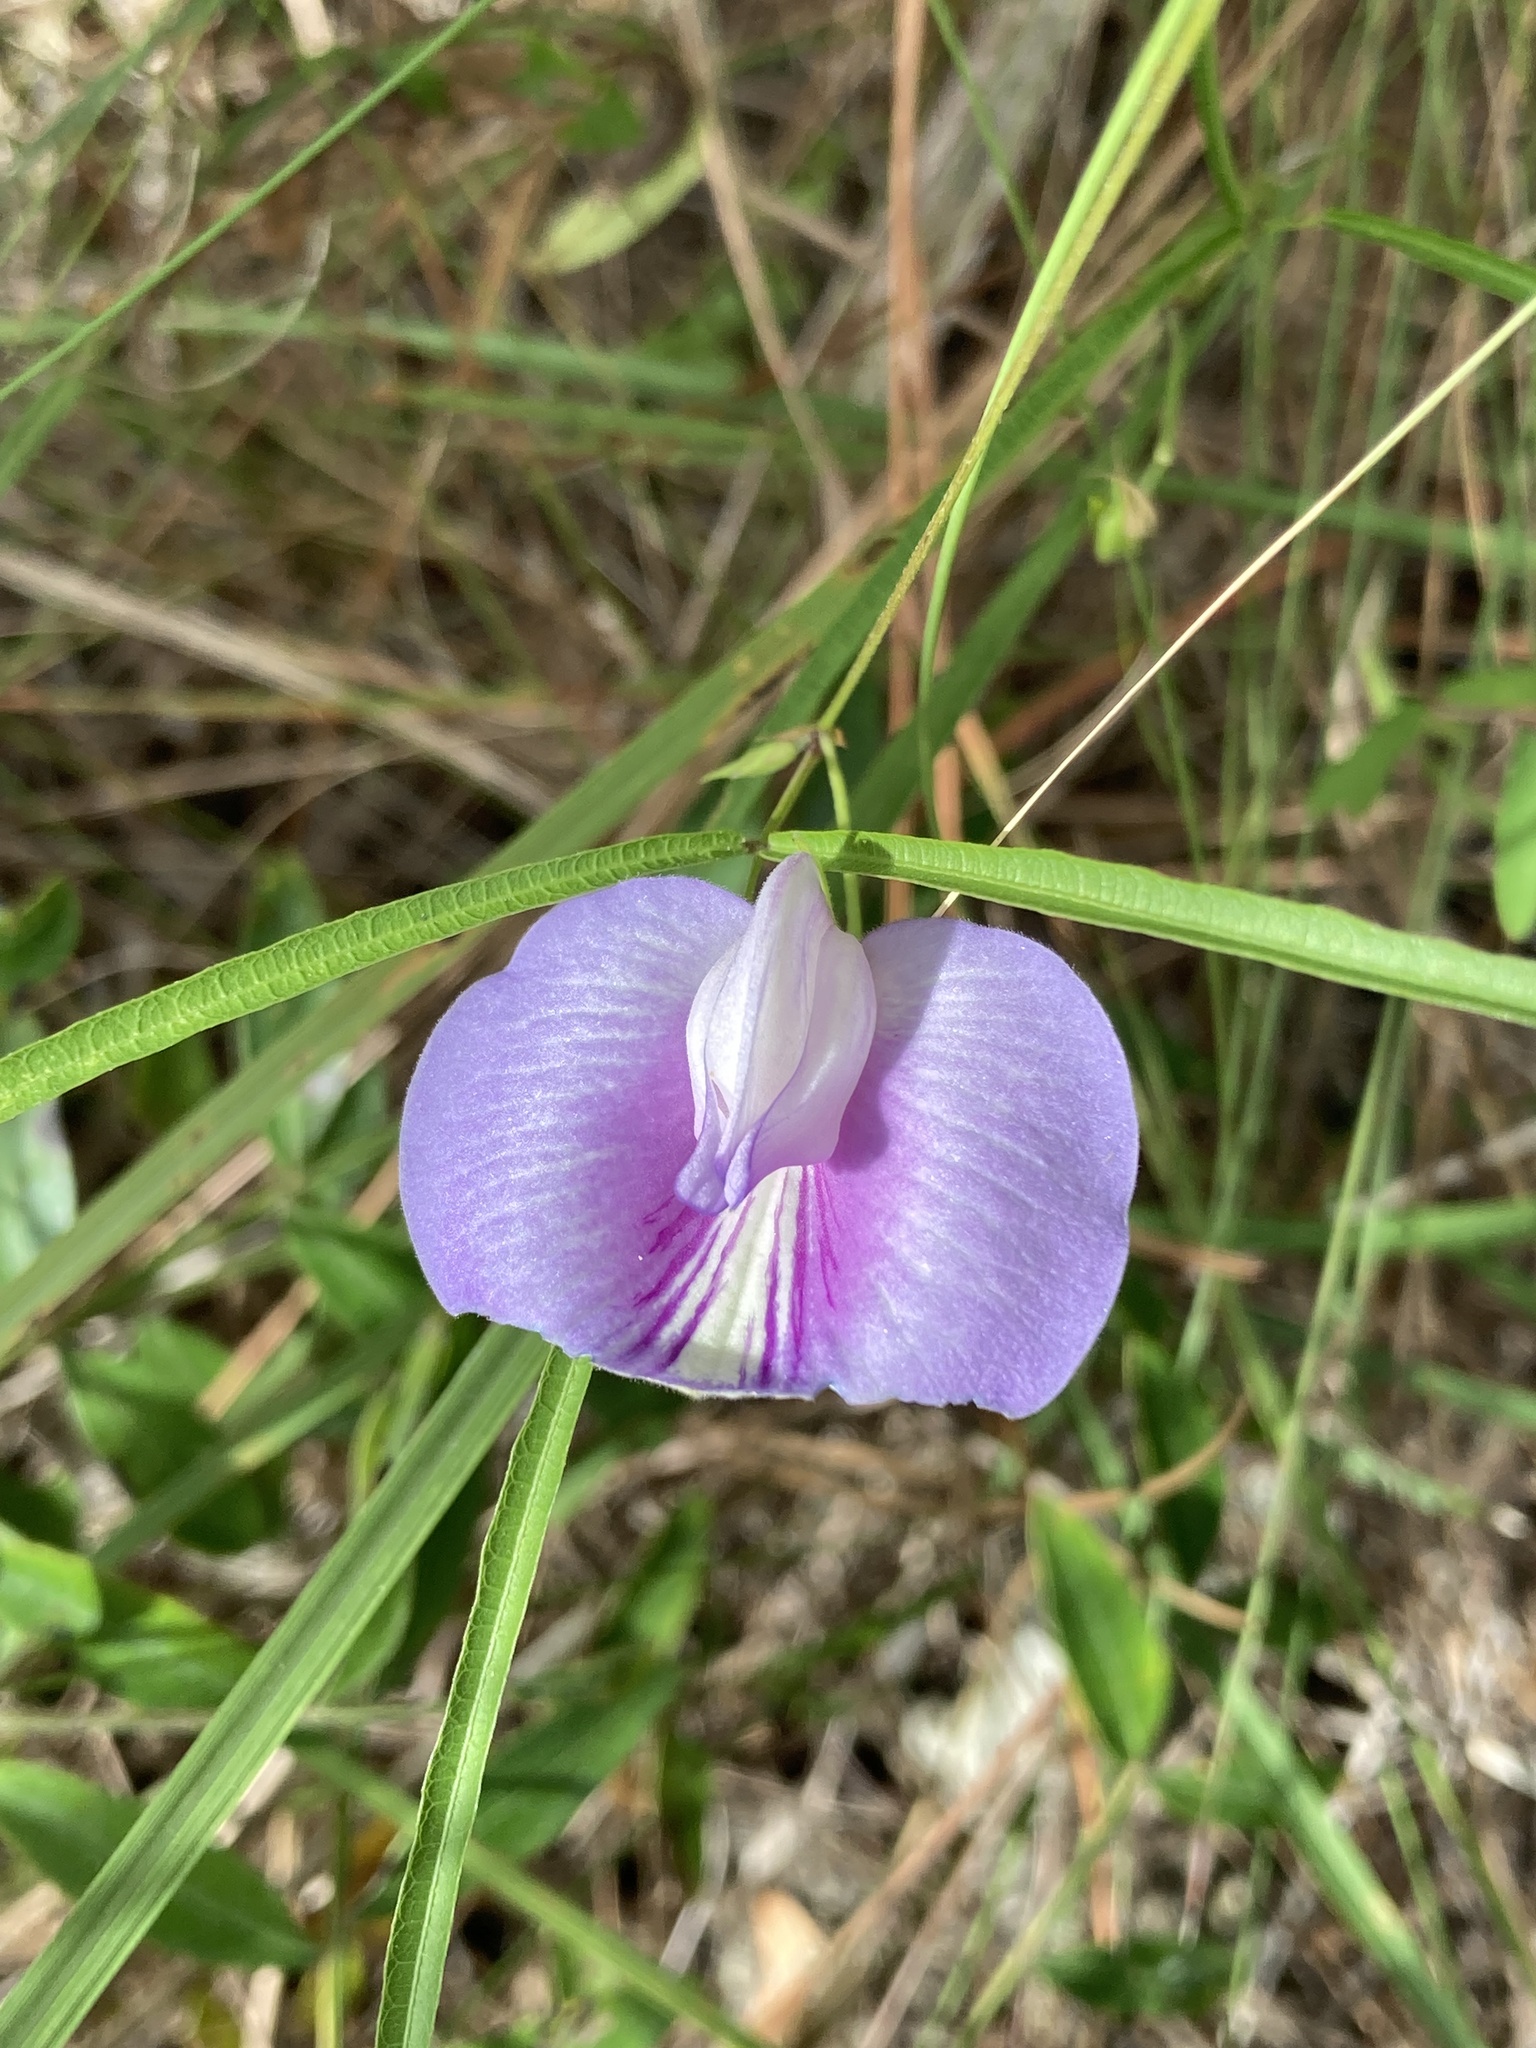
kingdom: Plantae
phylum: Tracheophyta
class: Magnoliopsida
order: Fabales
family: Fabaceae
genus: Centrosema
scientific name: Centrosema virginianum
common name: Butterfly-pea
